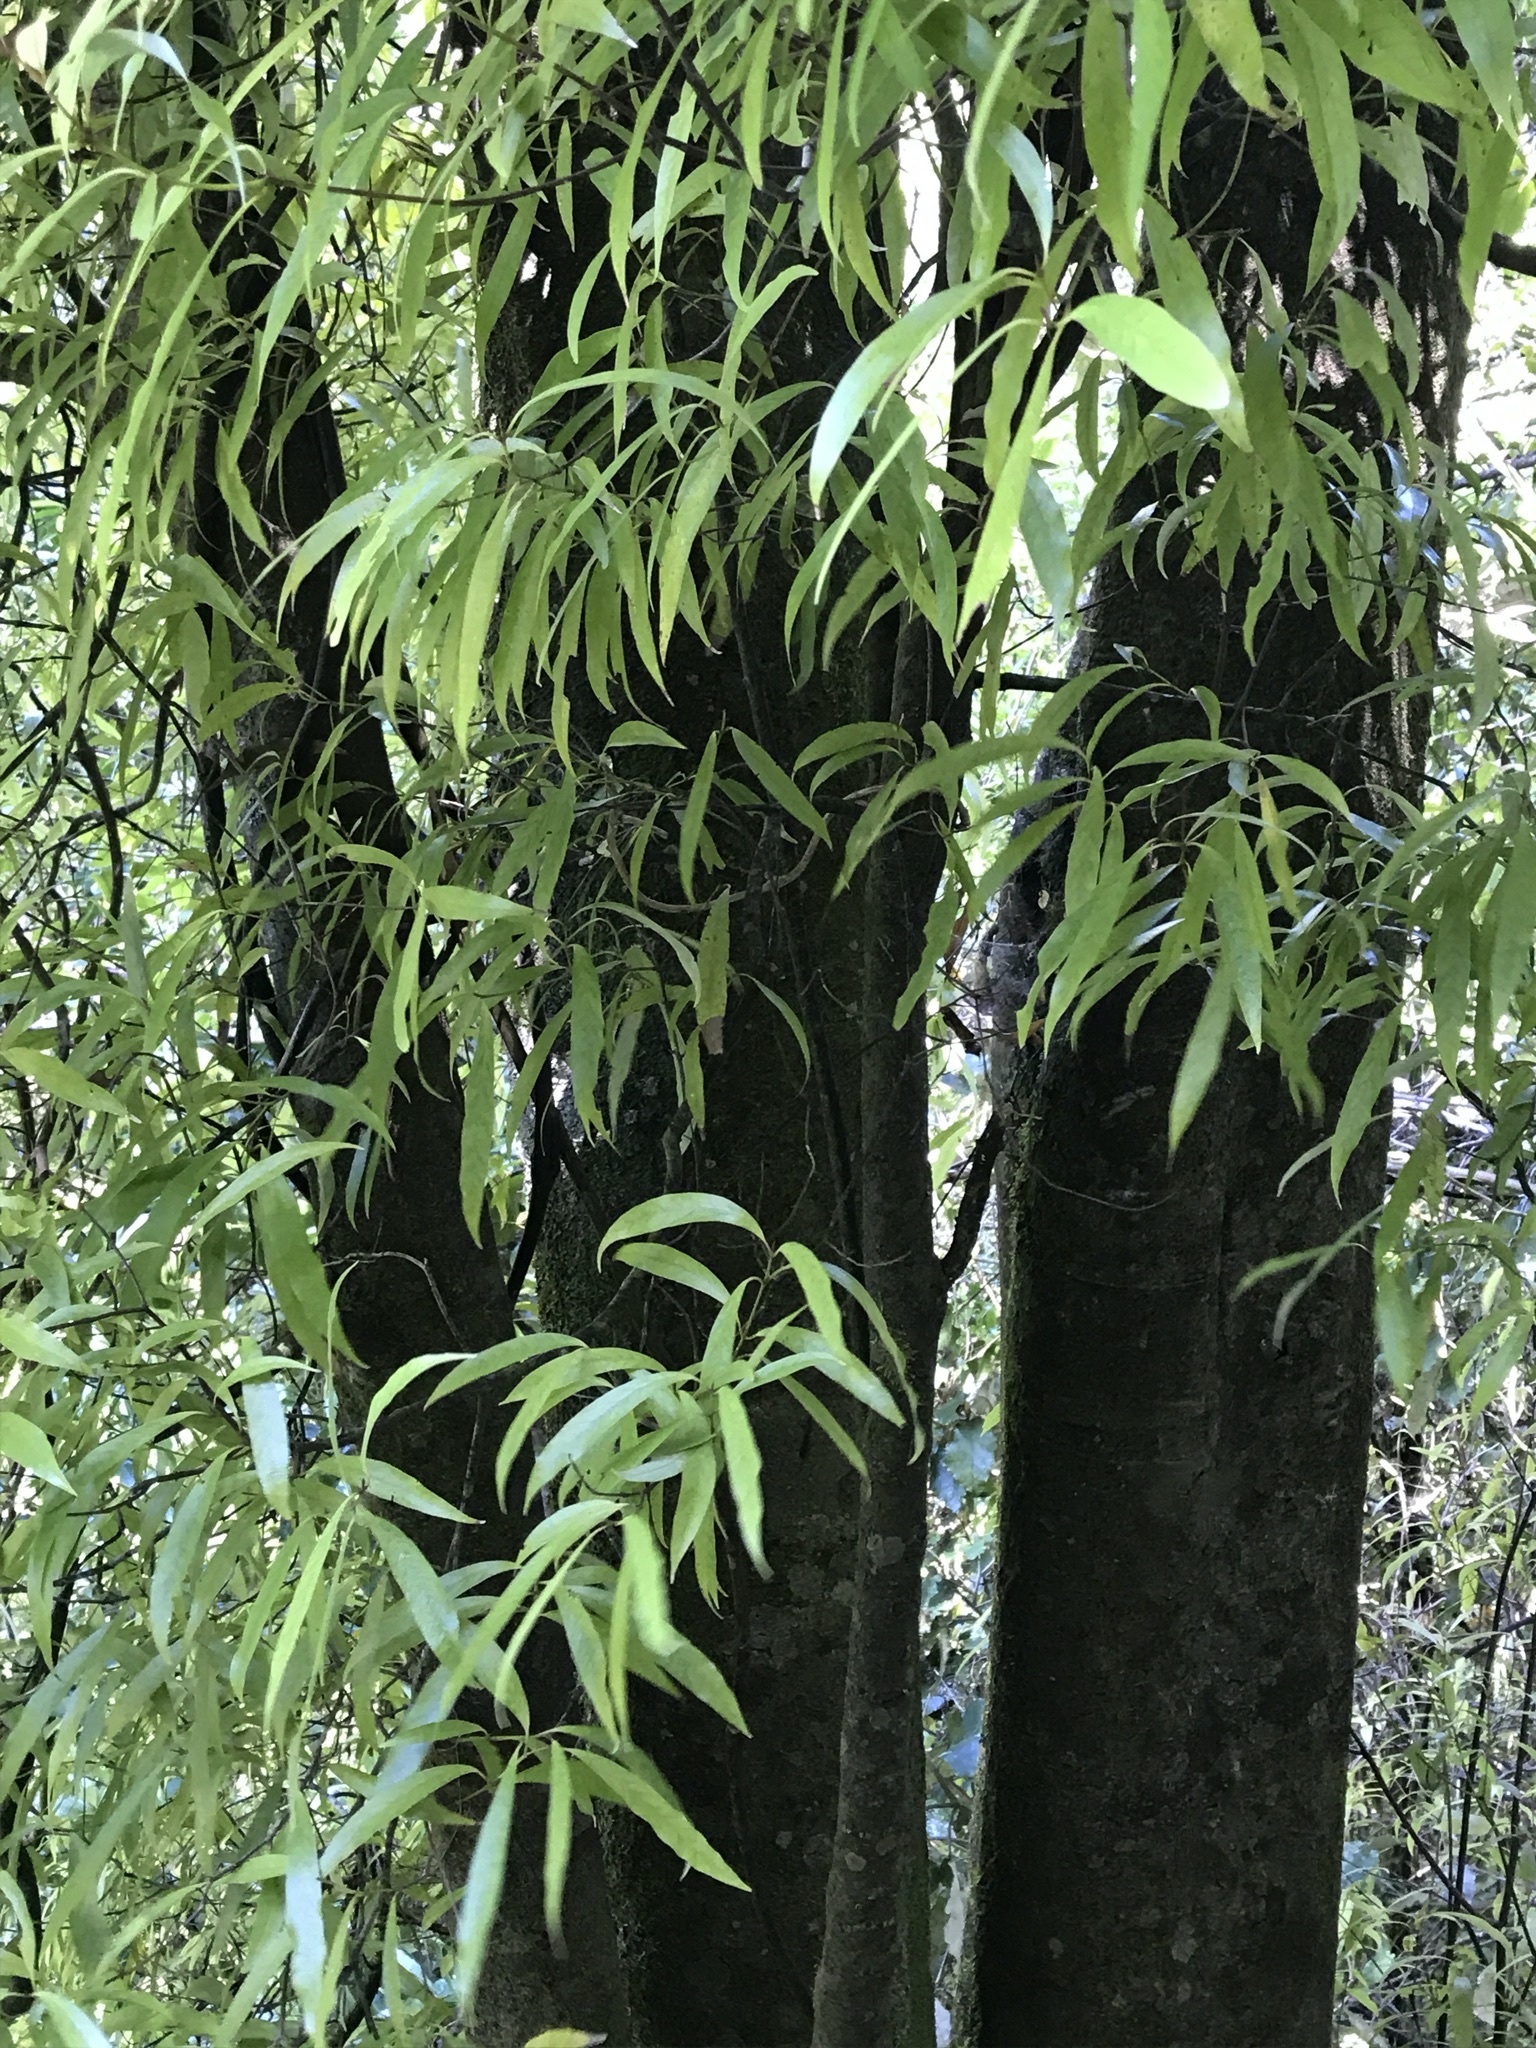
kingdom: Plantae
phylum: Tracheophyta
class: Magnoliopsida
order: Laurales
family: Lauraceae
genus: Beilschmiedia
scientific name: Beilschmiedia tawa
